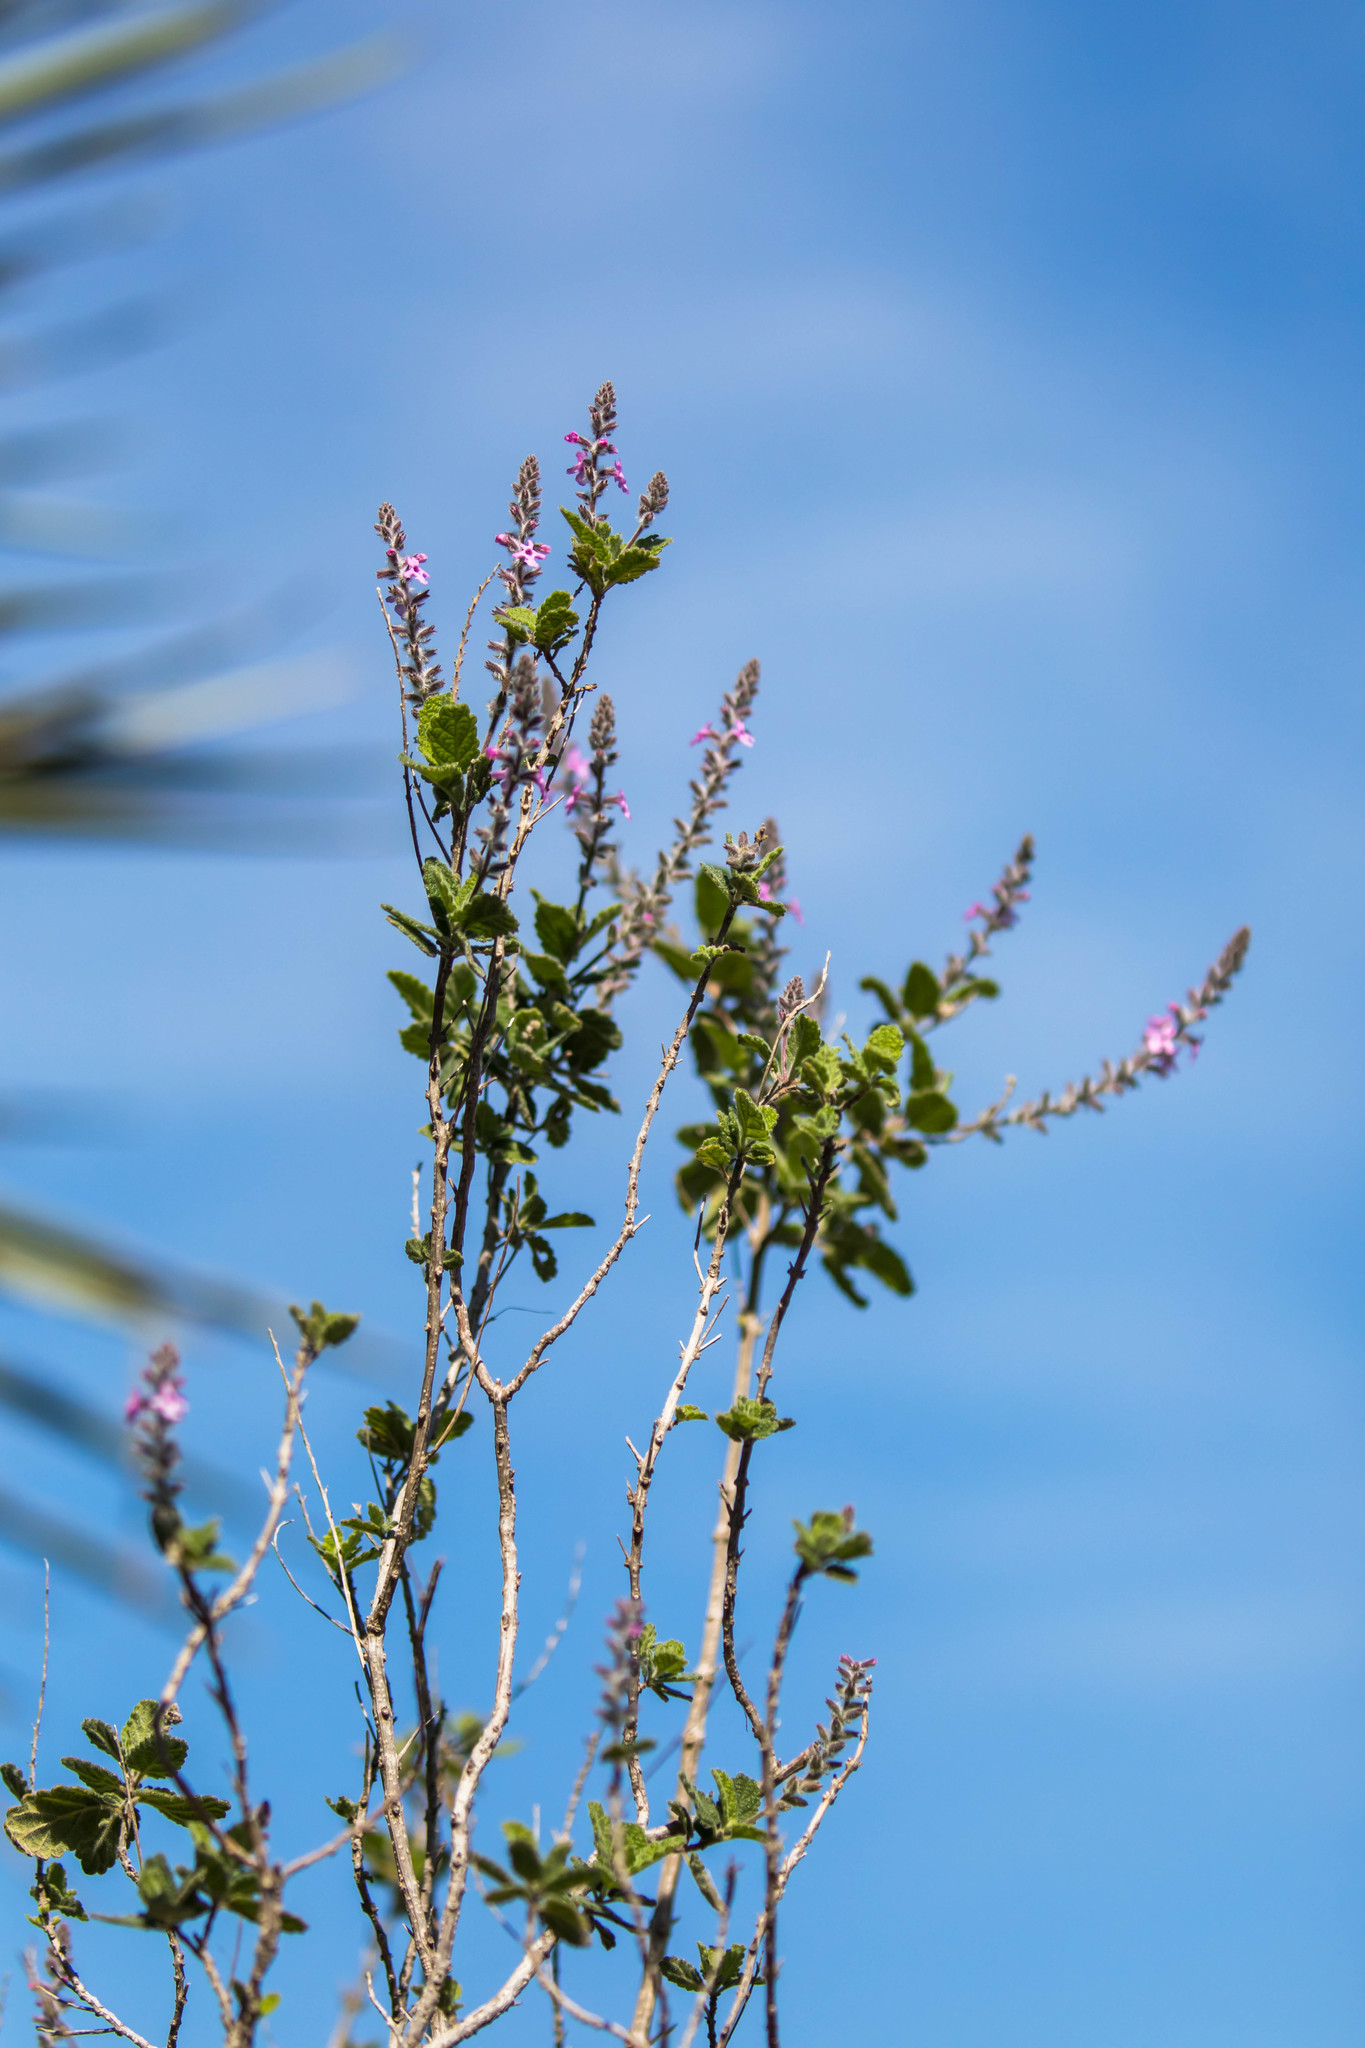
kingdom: Plantae
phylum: Tracheophyta
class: Magnoliopsida
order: Lamiales
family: Verbenaceae
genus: Aloysia
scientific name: Aloysia macrostachya
